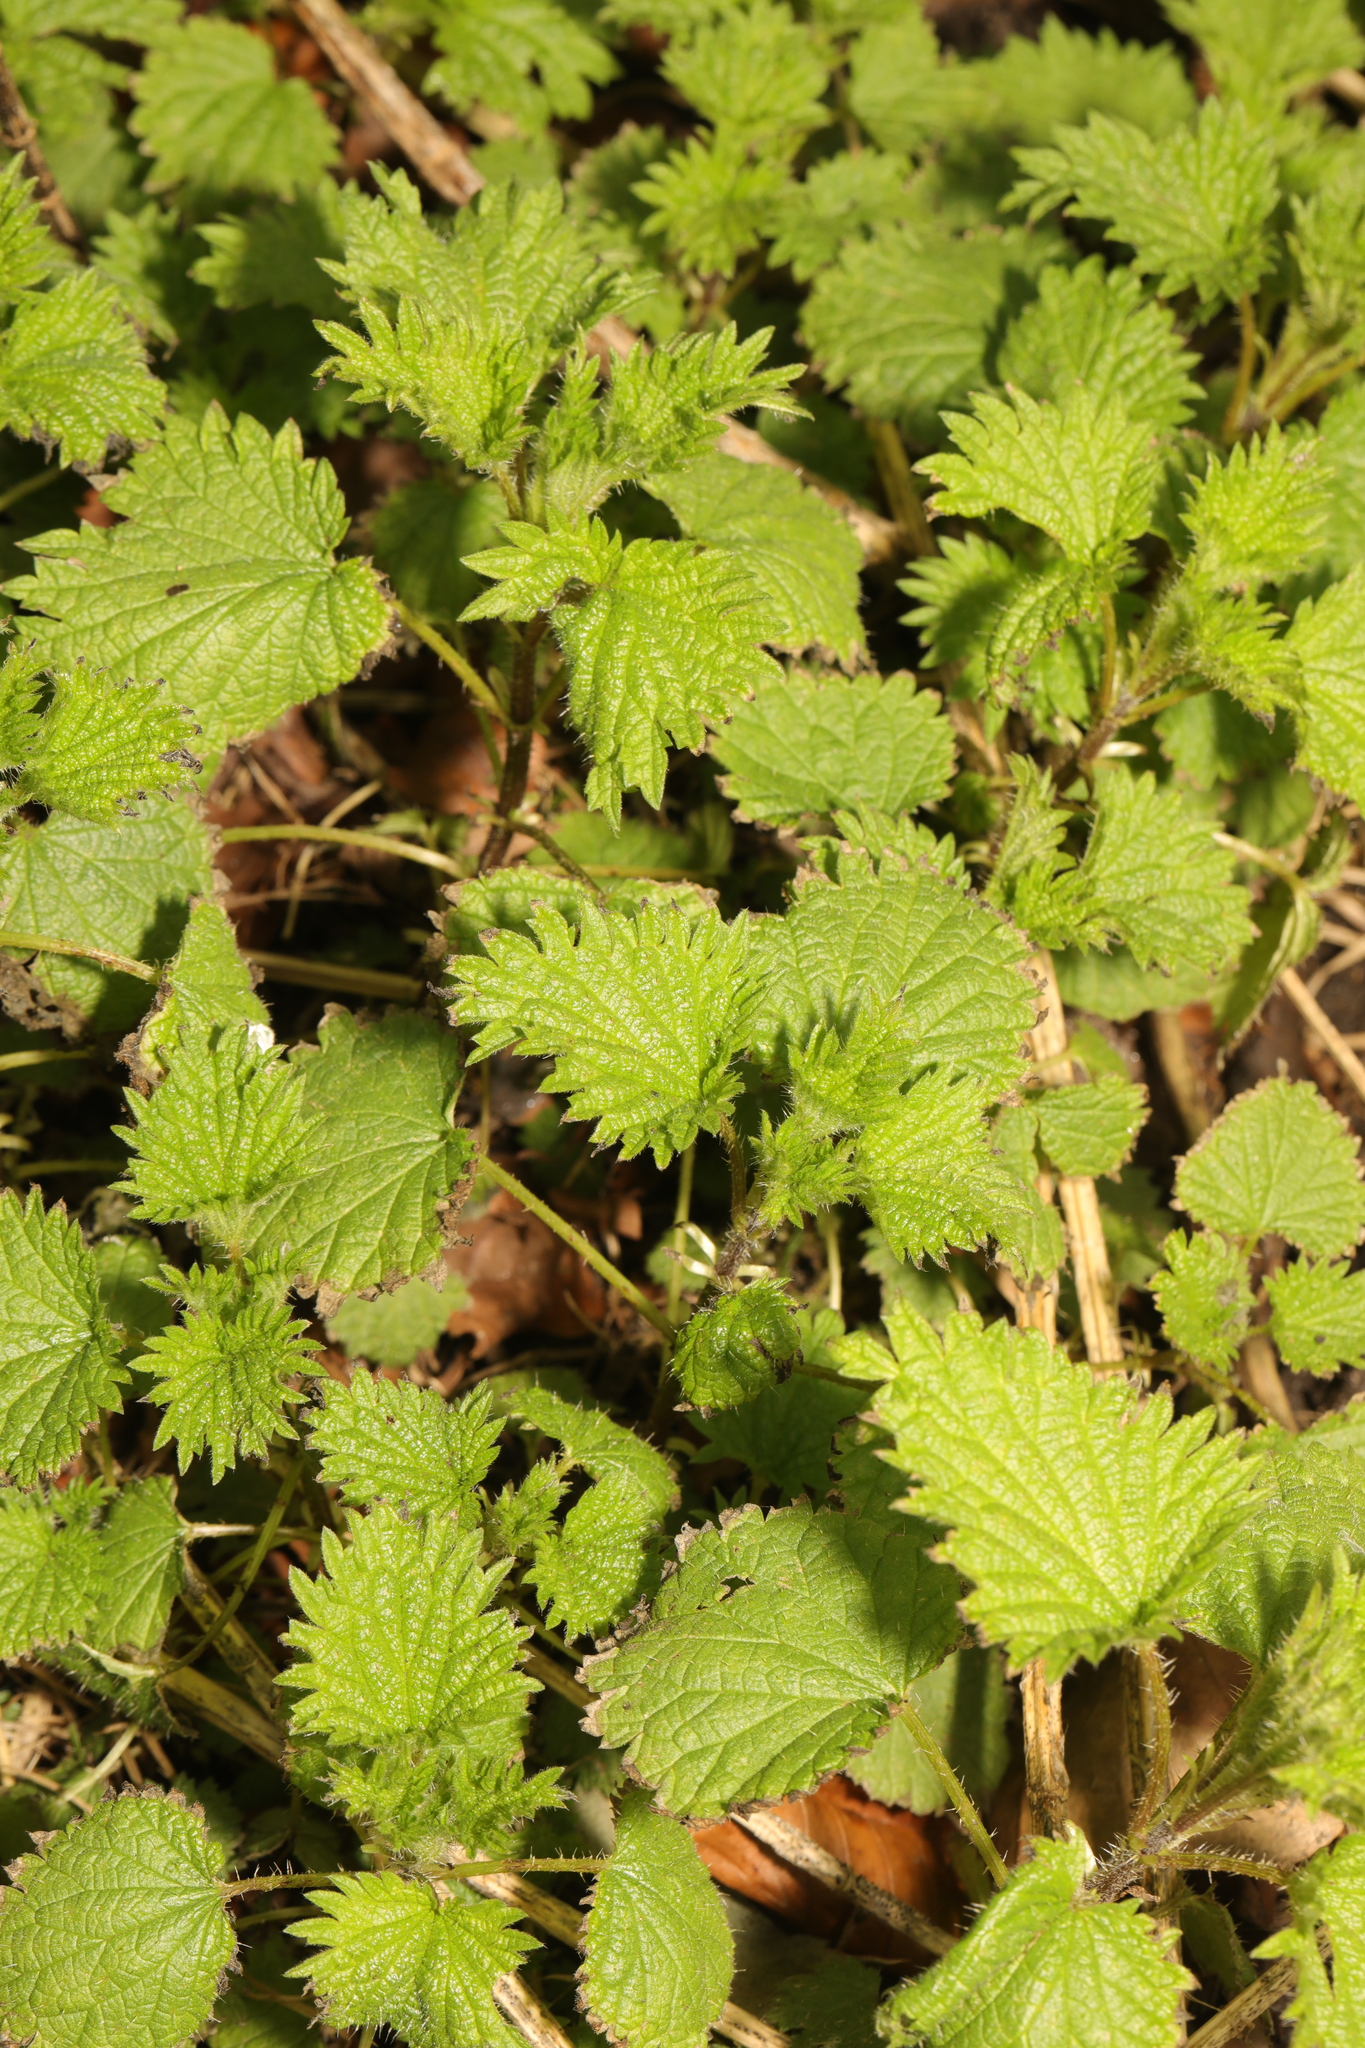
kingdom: Plantae
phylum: Tracheophyta
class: Magnoliopsida
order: Rosales
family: Urticaceae
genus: Urtica
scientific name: Urtica dioica
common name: Common nettle
